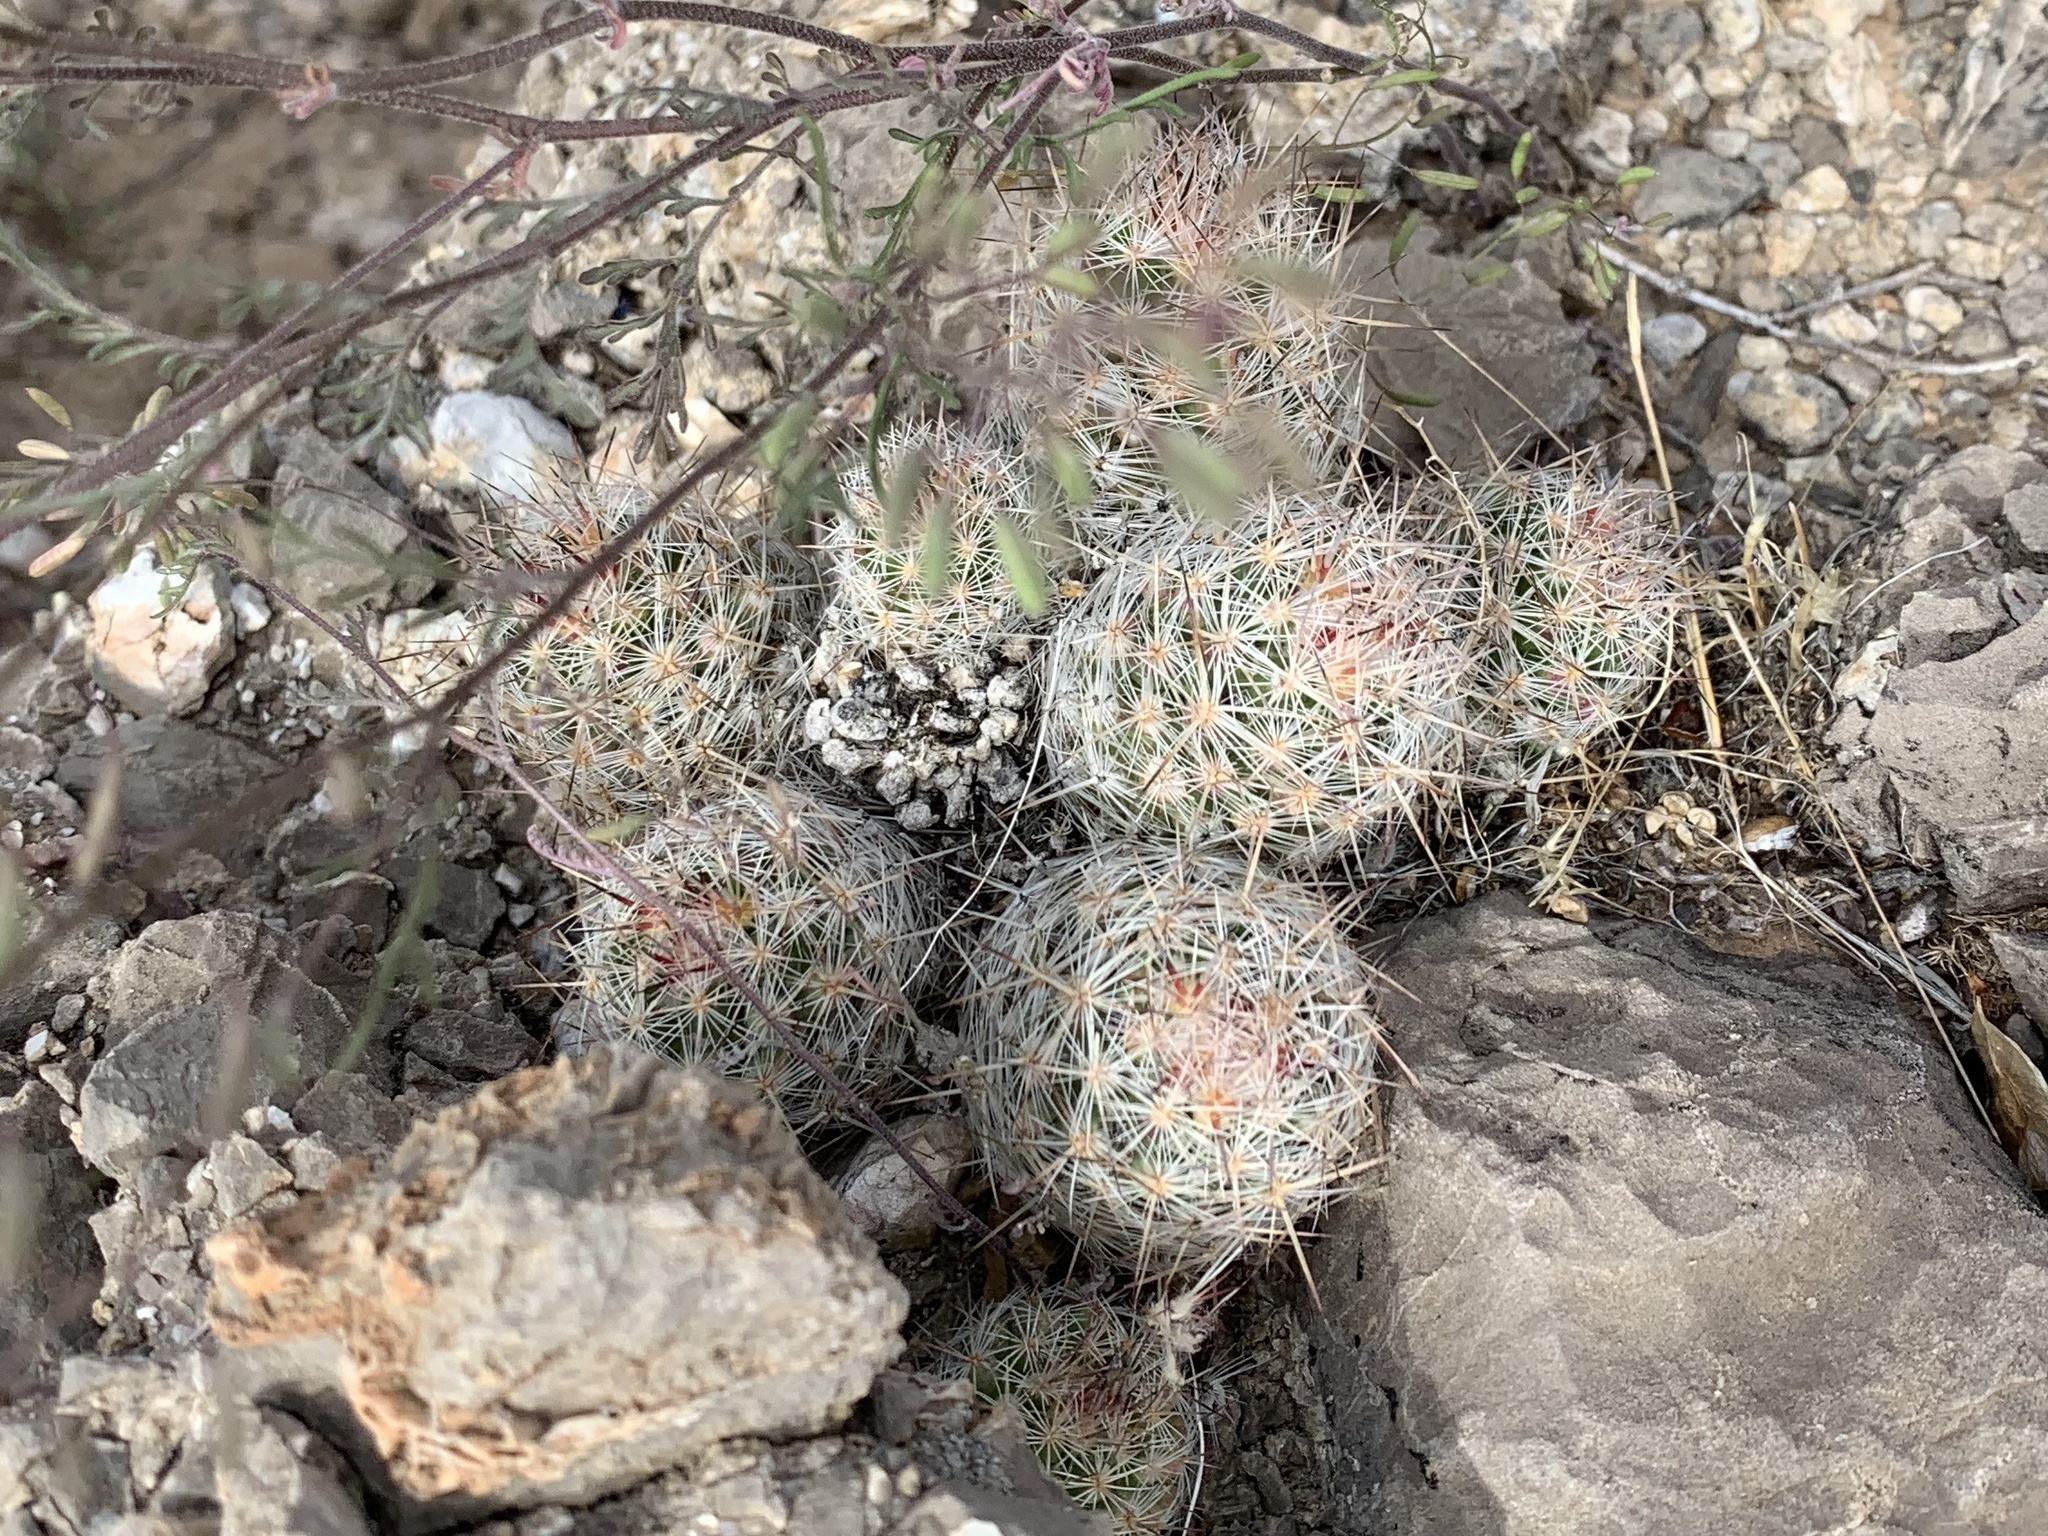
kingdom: Plantae
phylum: Tracheophyta
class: Magnoliopsida
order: Caryophyllales
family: Cactaceae
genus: Pelecyphora
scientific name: Pelecyphora tuberculosa
